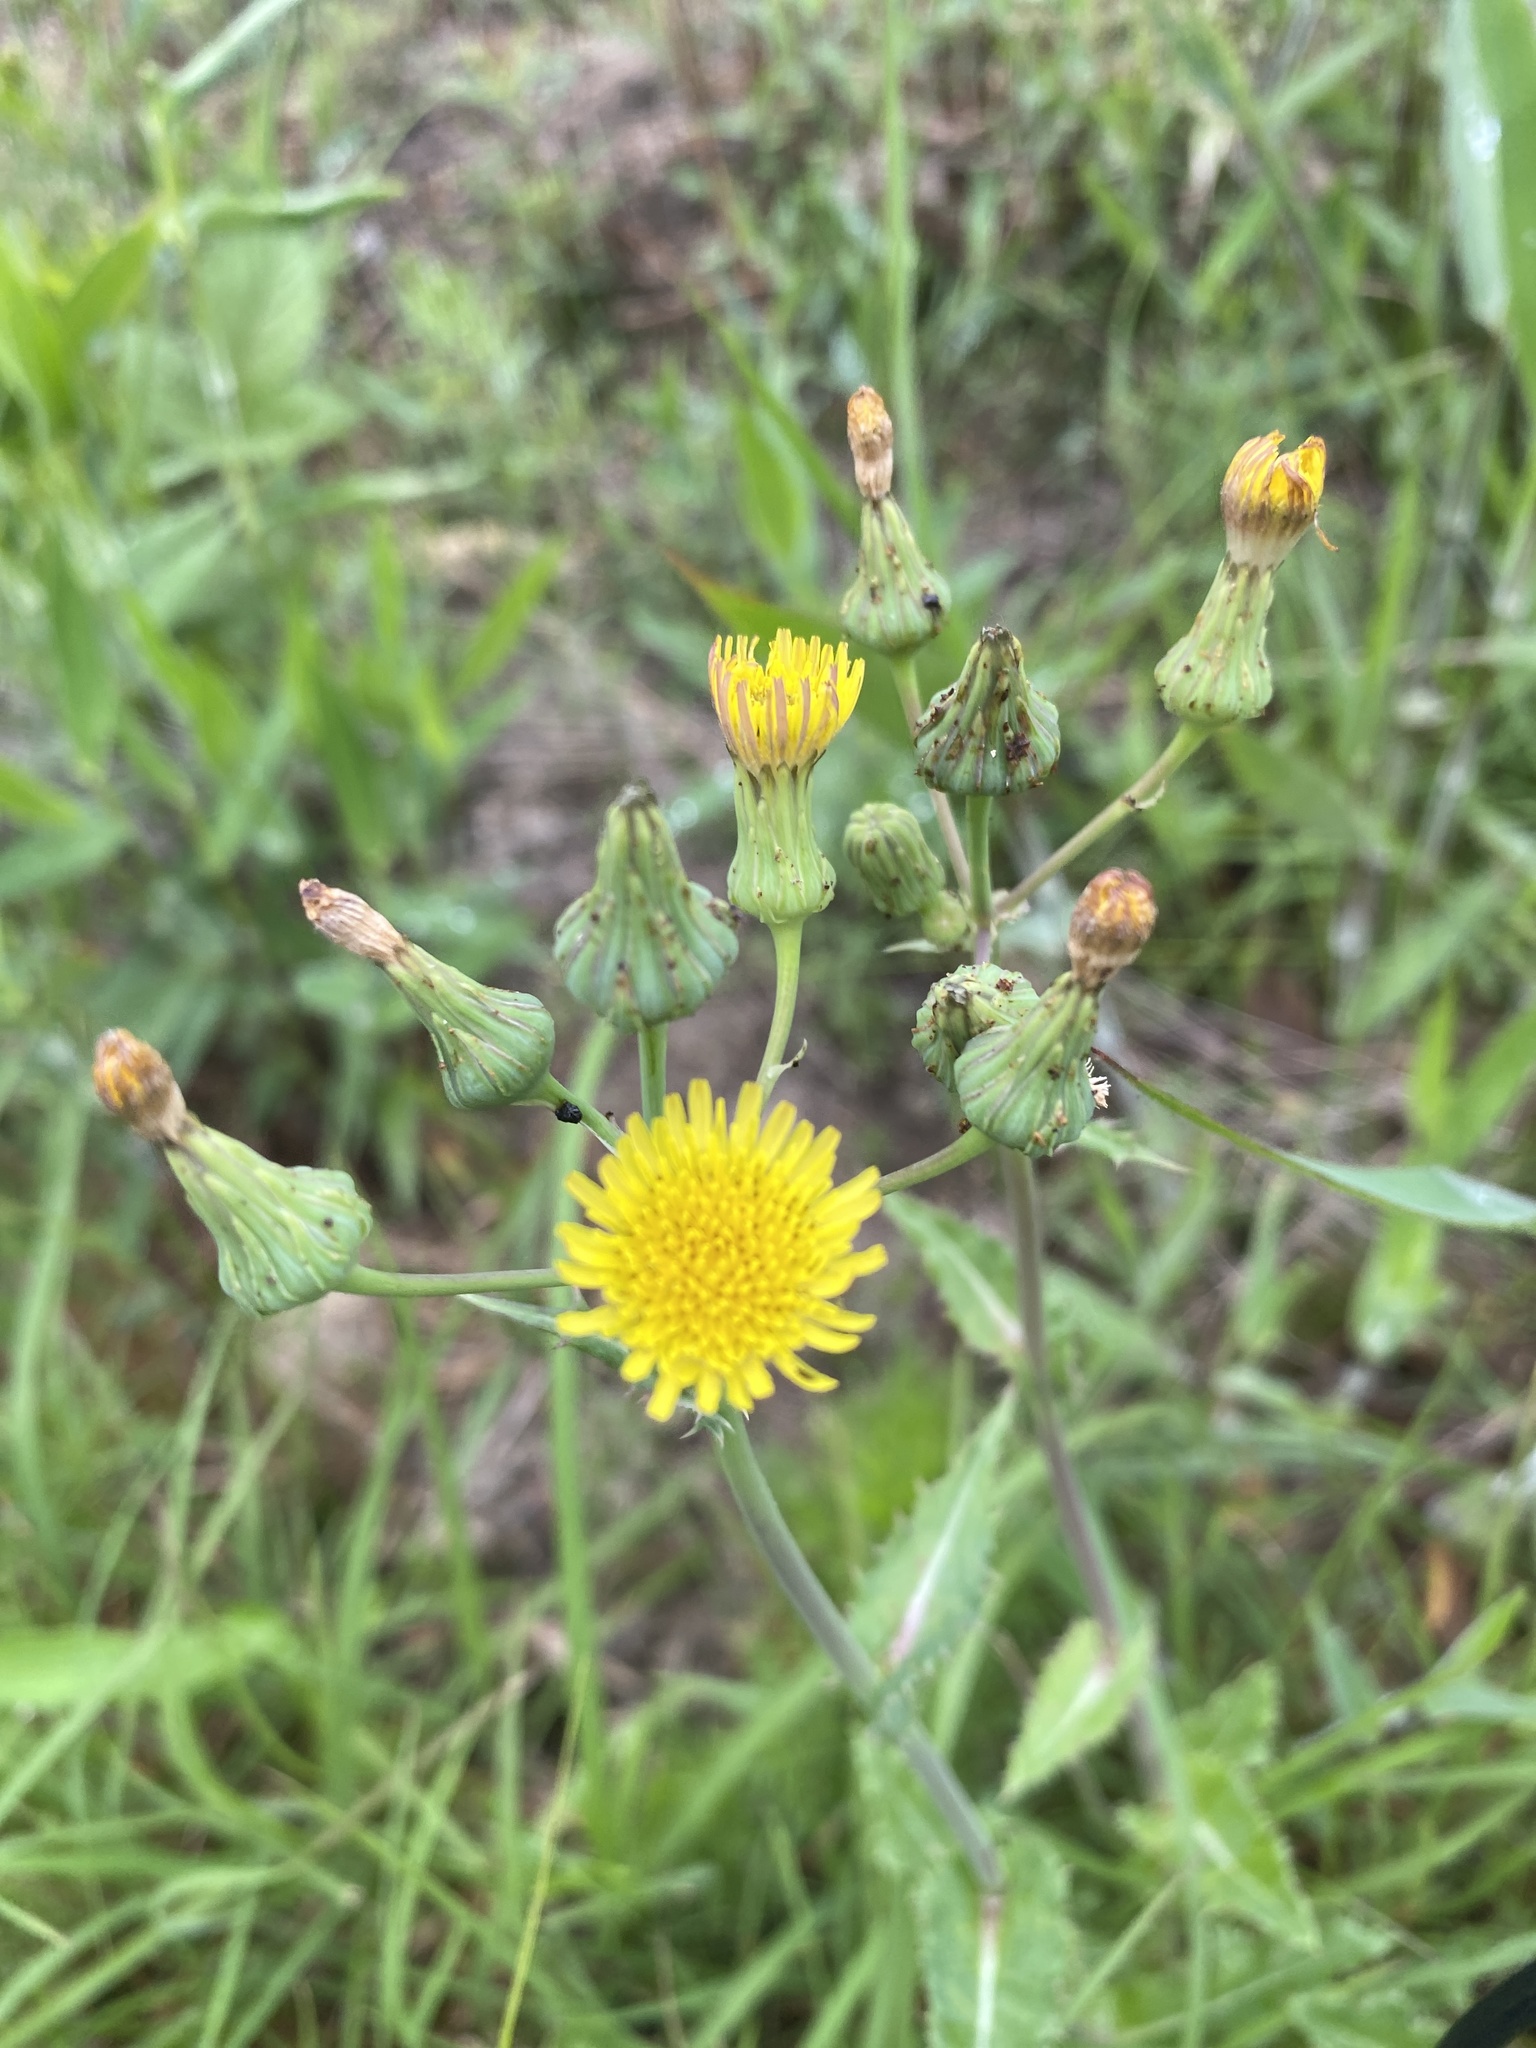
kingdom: Plantae
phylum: Tracheophyta
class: Magnoliopsida
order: Asterales
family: Asteraceae
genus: Sonchus
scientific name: Sonchus asper
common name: Prickly sow-thistle
